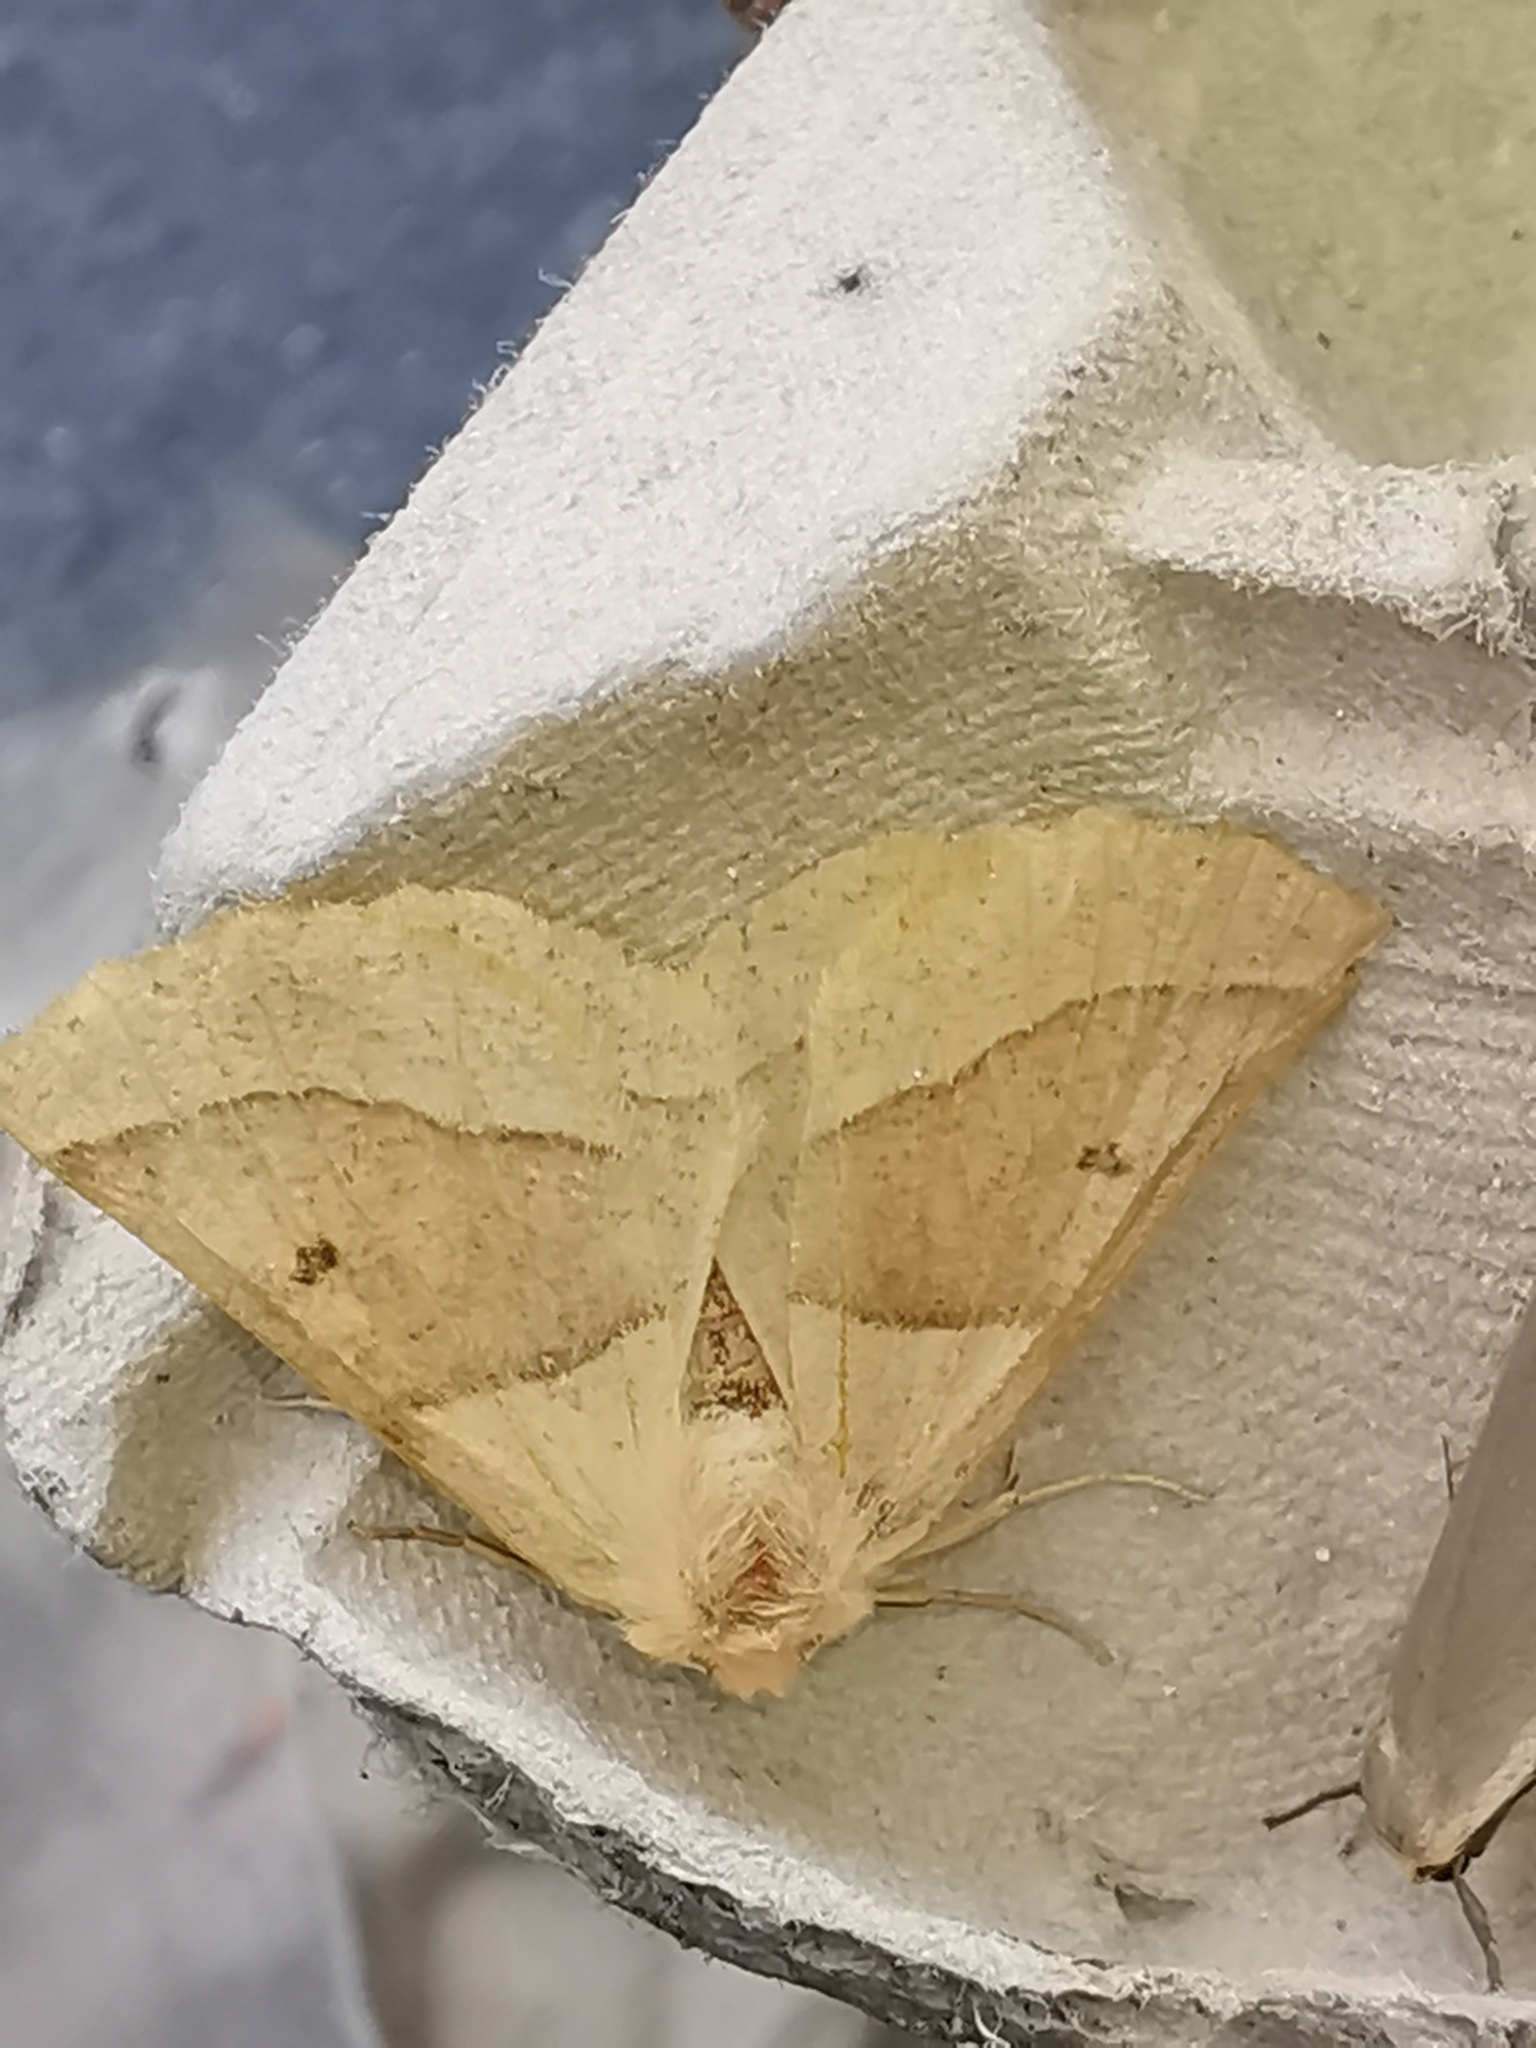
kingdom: Animalia
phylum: Arthropoda
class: Insecta
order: Lepidoptera
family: Geometridae
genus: Crocallis
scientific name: Crocallis elinguaria
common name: Scalloped oak
